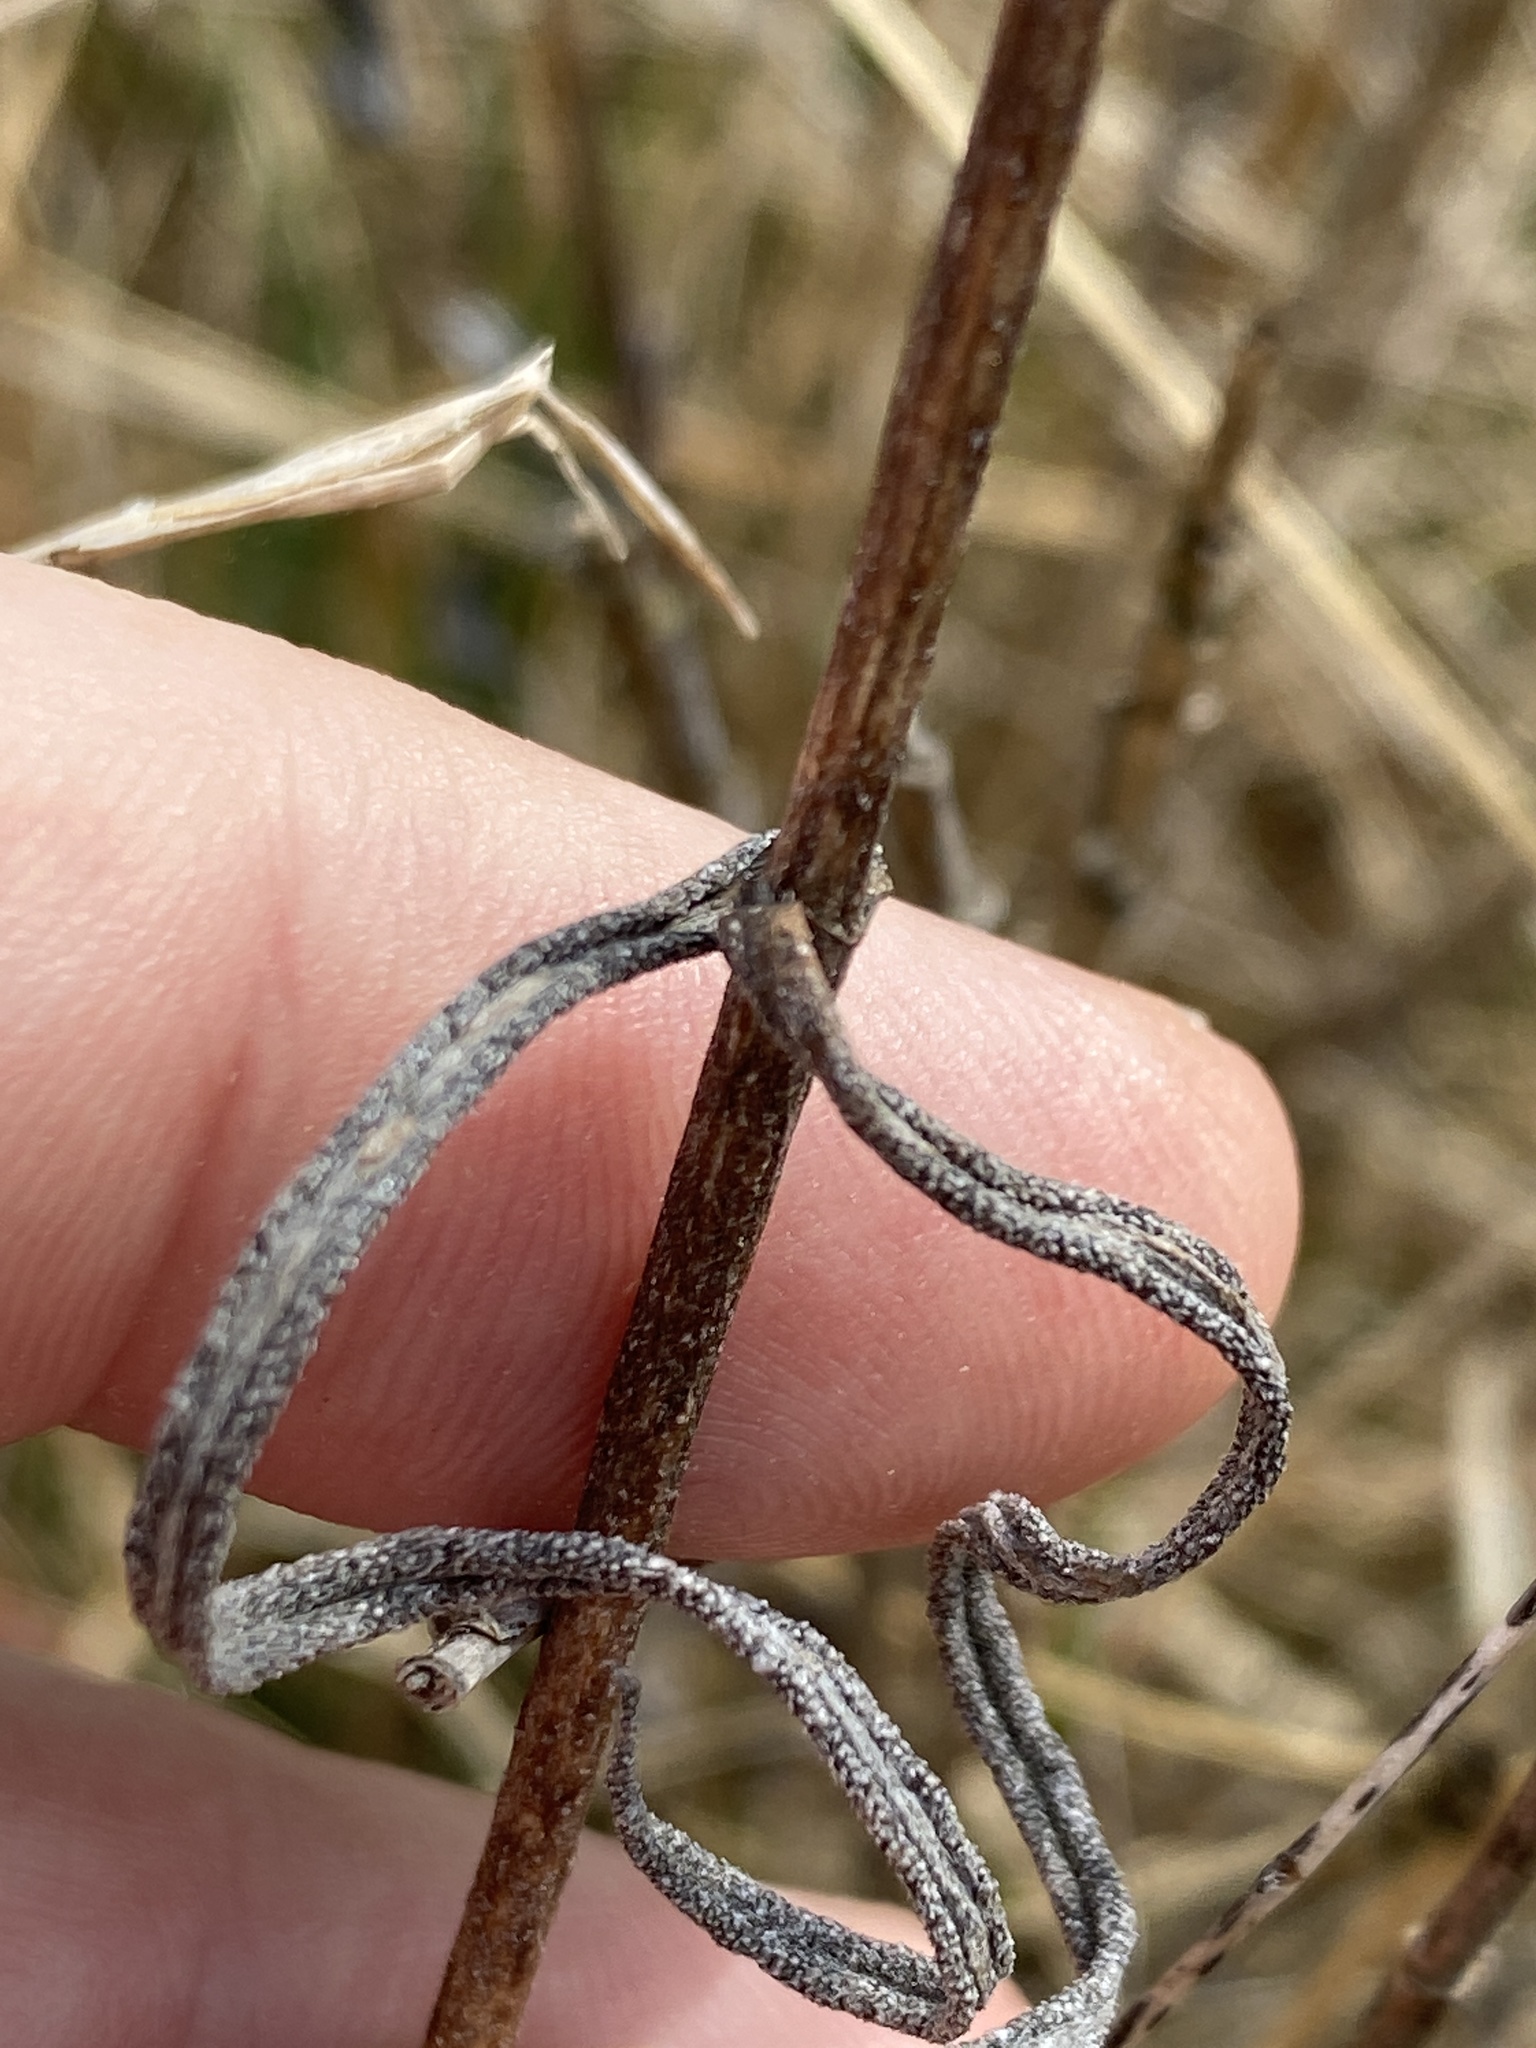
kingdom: Plantae
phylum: Tracheophyta
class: Magnoliopsida
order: Asterales
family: Asteraceae
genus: Helianthus
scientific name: Helianthus angustifolius
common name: Swamp sunflower
